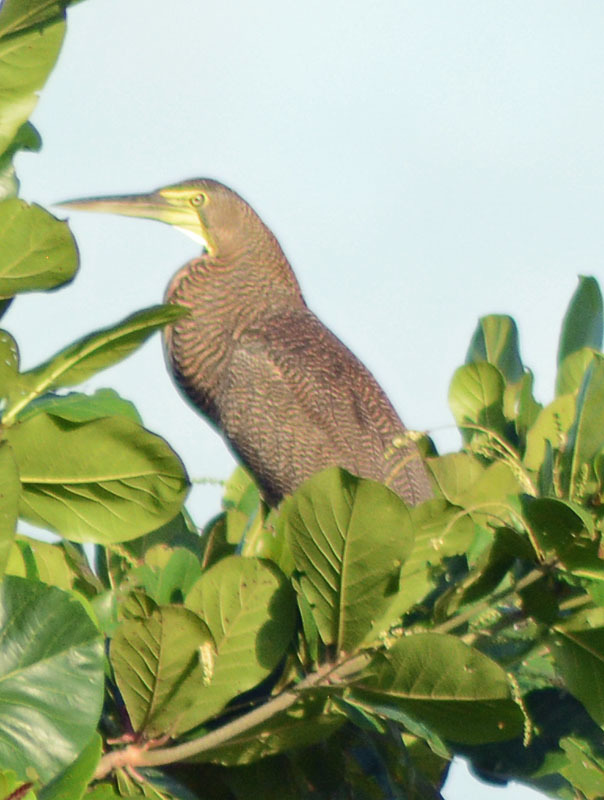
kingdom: Animalia
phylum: Chordata
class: Aves
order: Pelecaniformes
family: Ardeidae
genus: Tigrisoma
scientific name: Tigrisoma mexicanum
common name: Bare-throated tiger-heron
